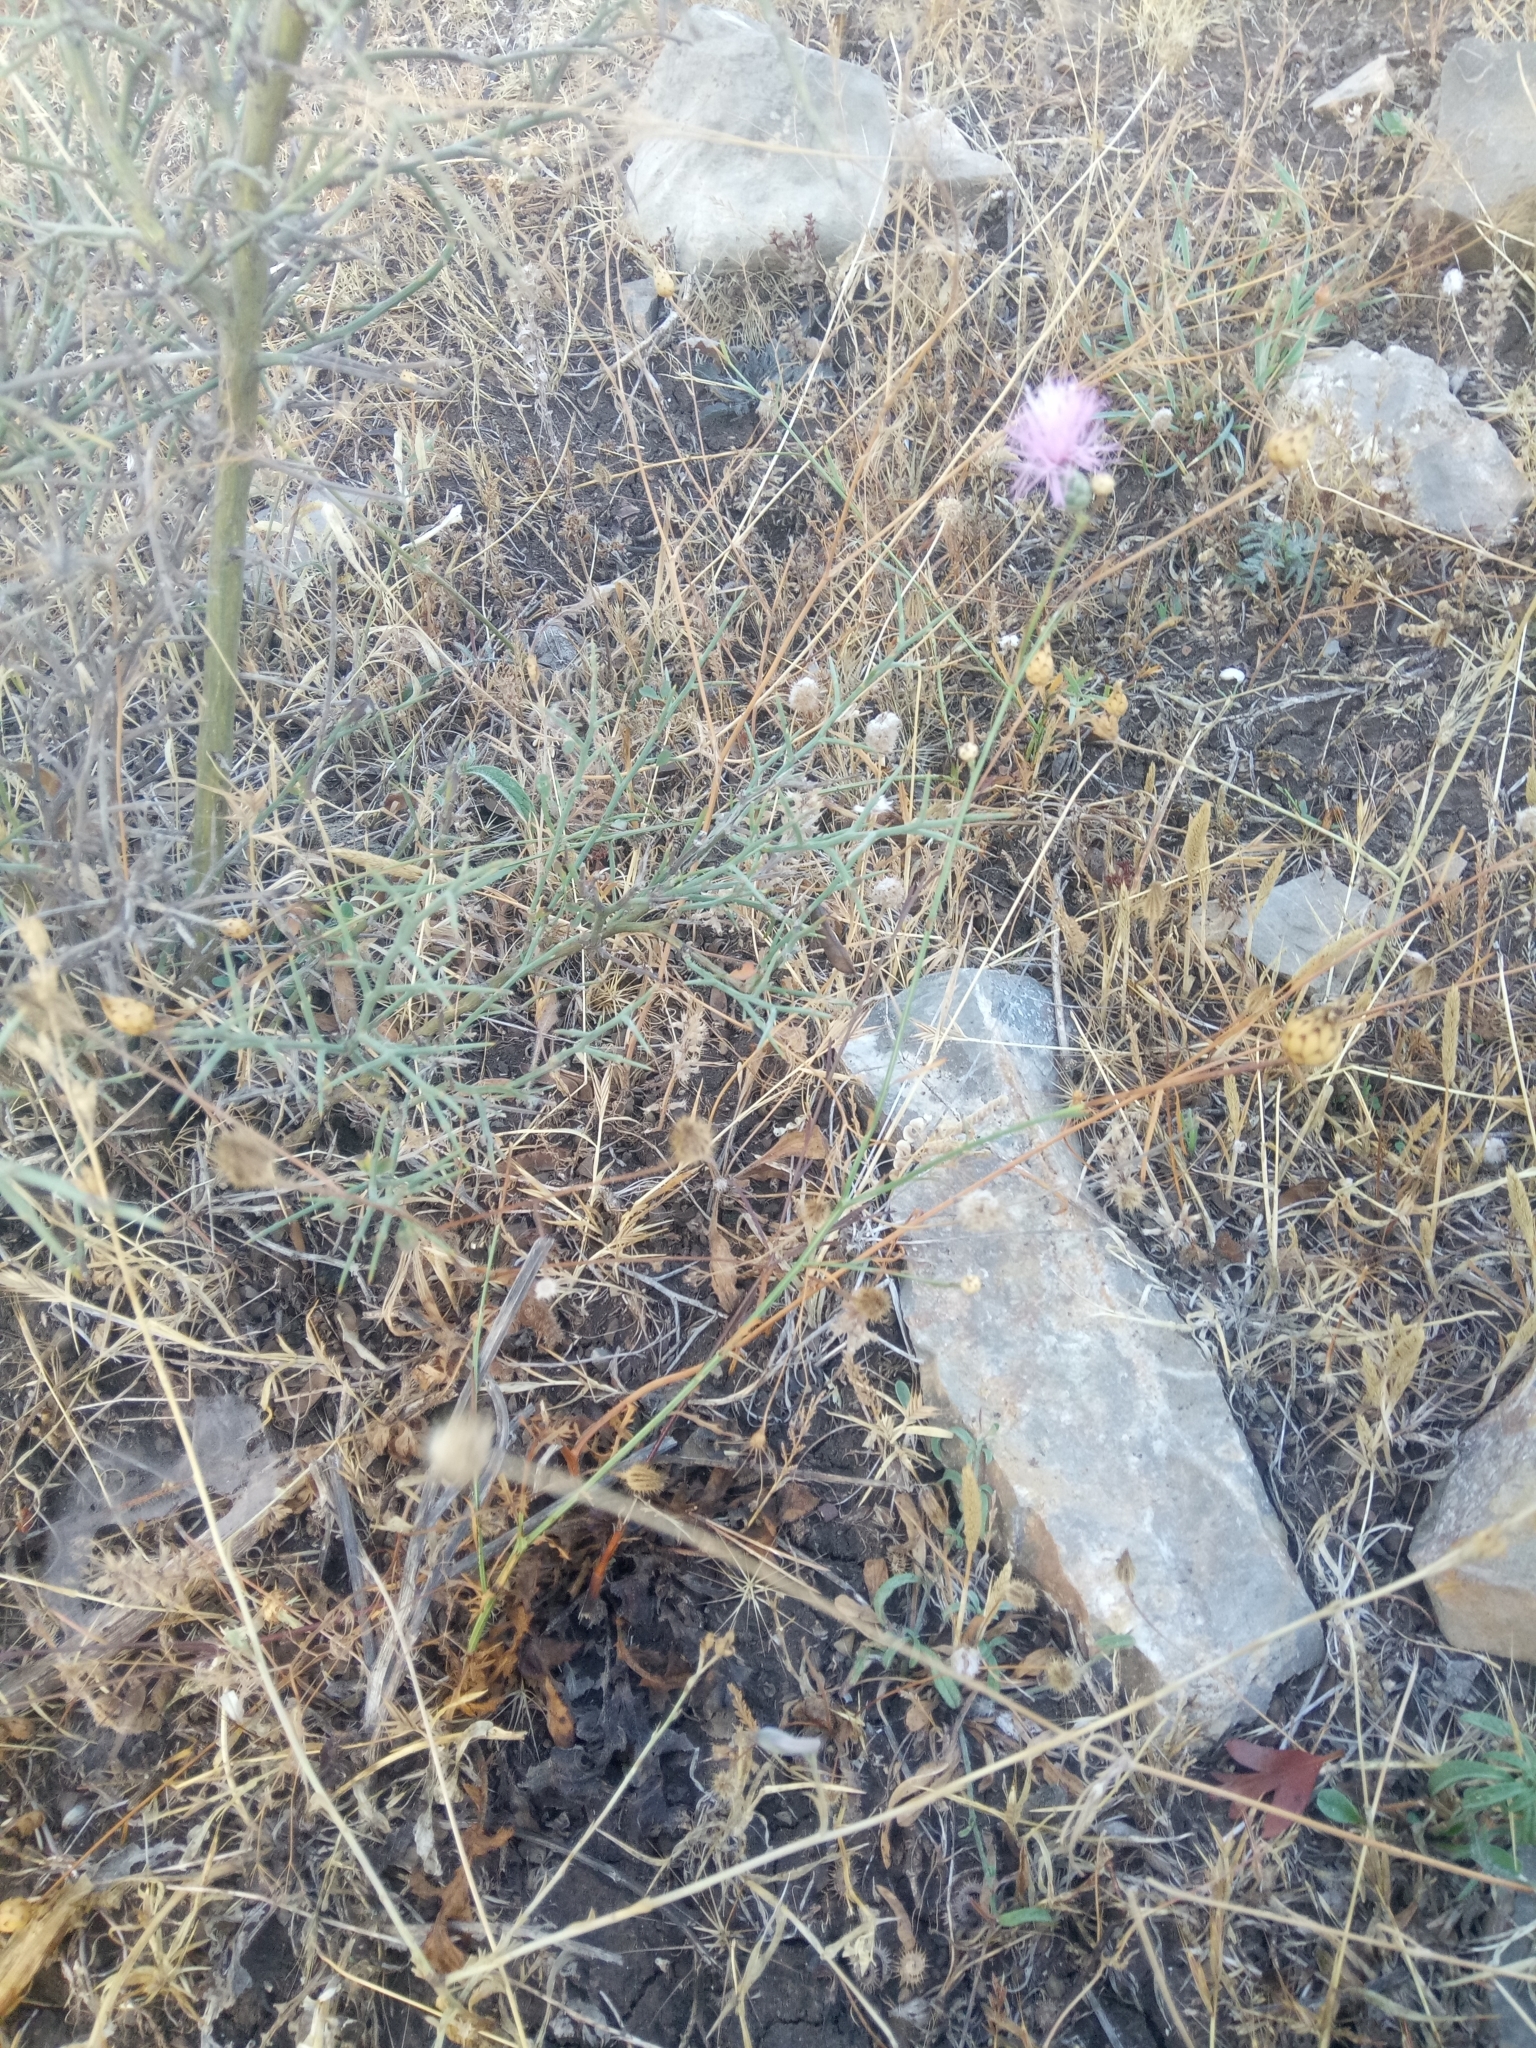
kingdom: Plantae
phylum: Tracheophyta
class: Magnoliopsida
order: Asterales
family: Asteraceae
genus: Mantisalca
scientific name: Mantisalca salmantica
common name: Dagger flower
